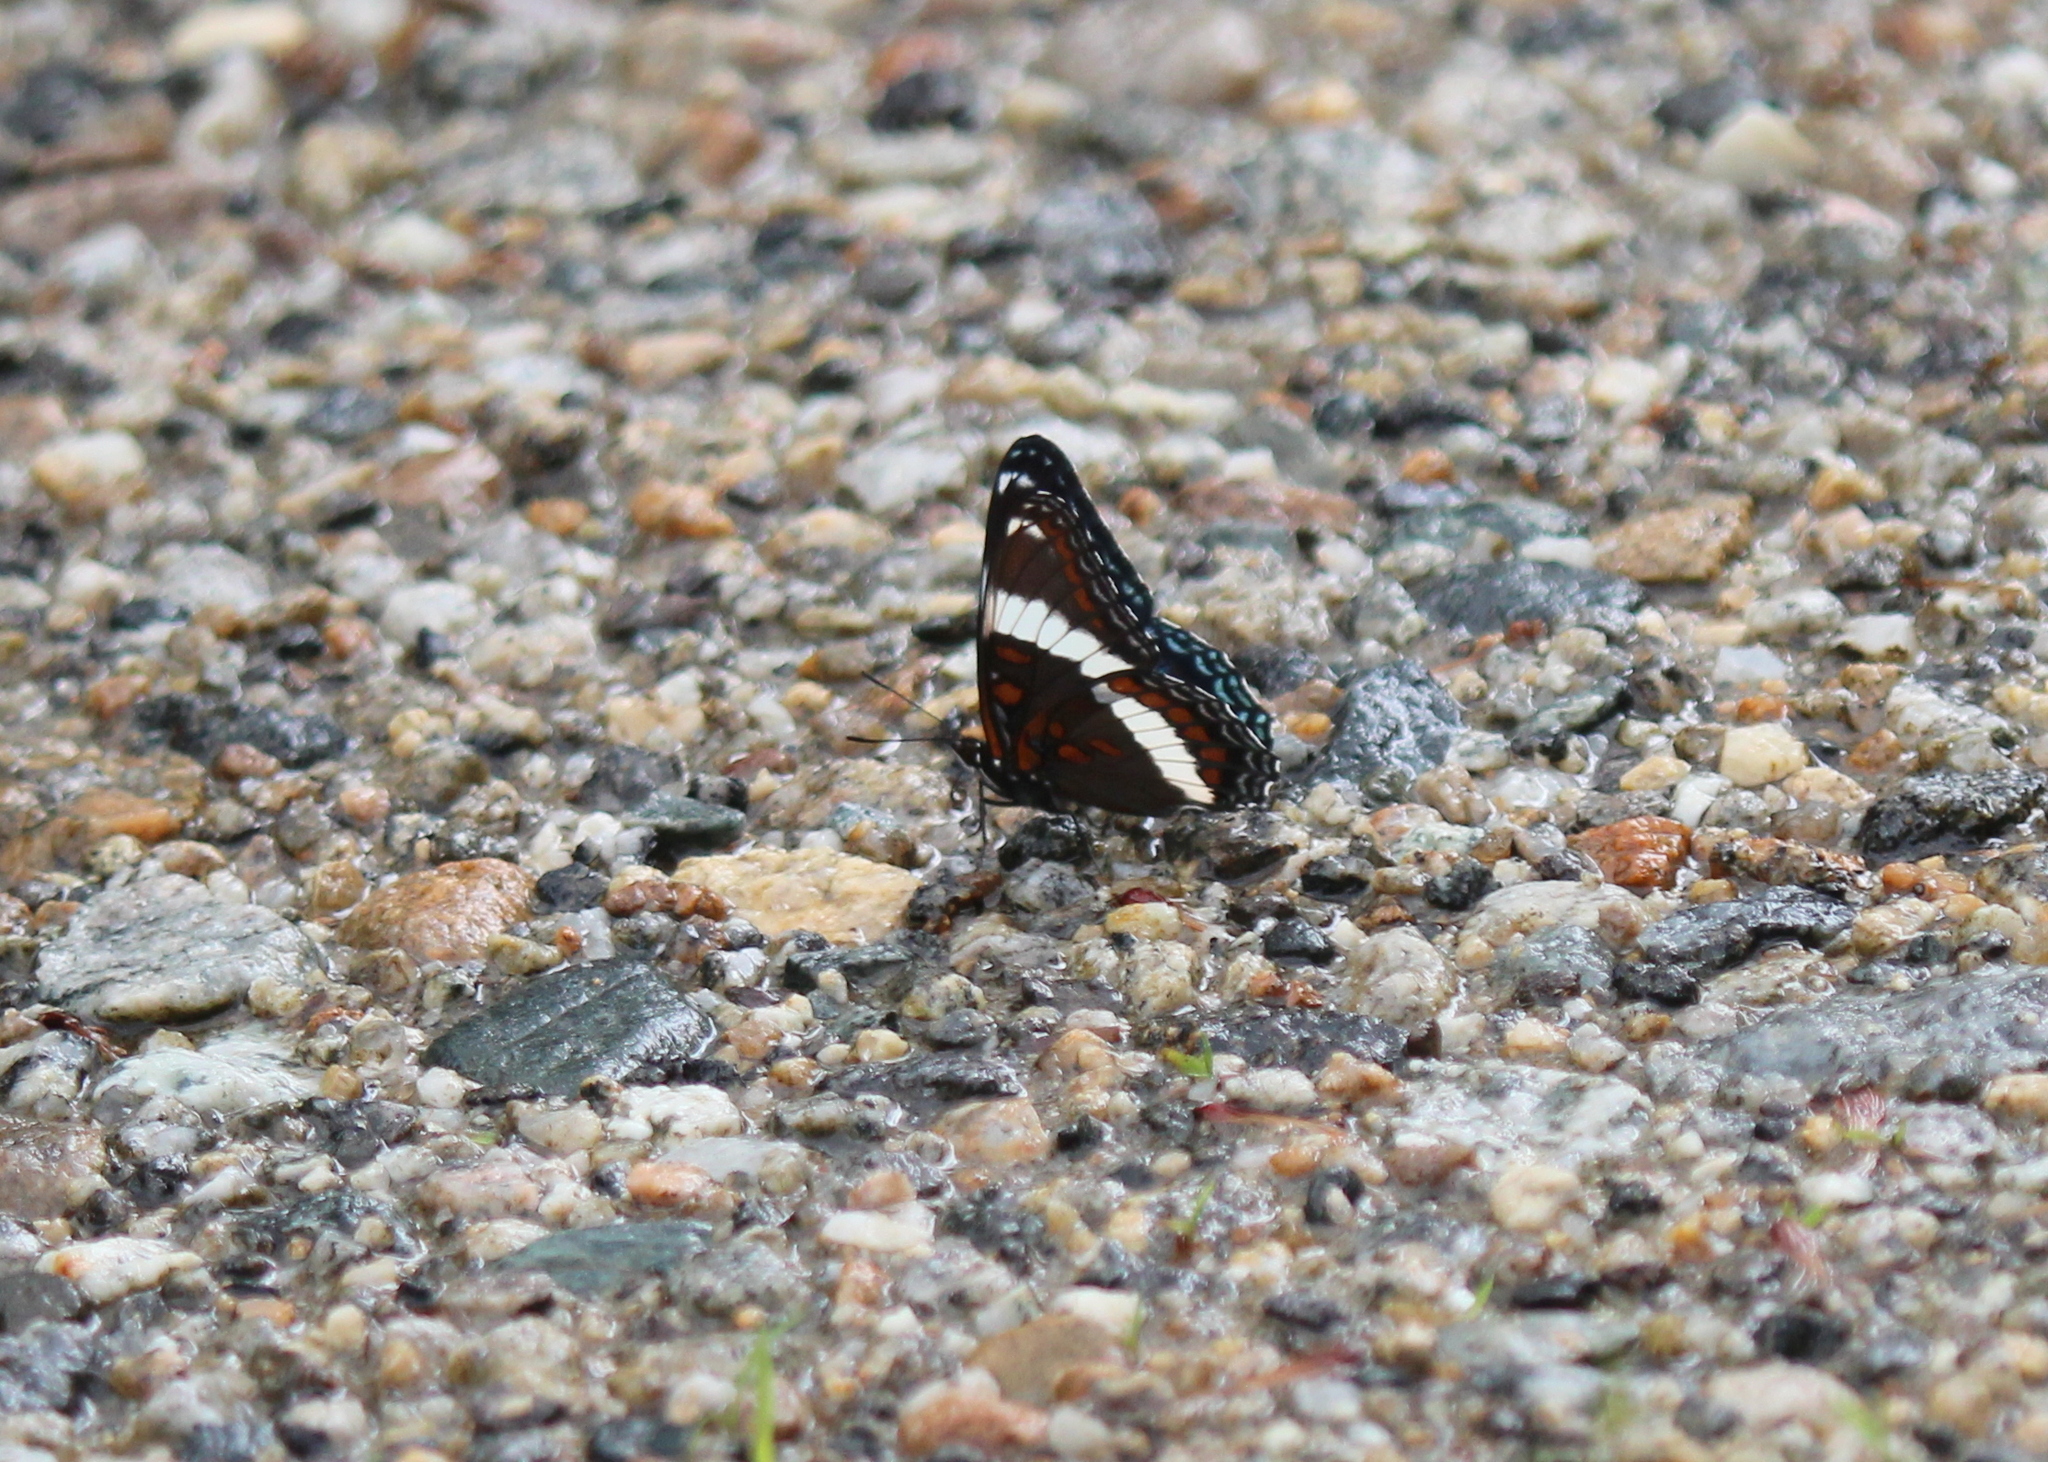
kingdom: Animalia
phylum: Arthropoda
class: Insecta
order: Lepidoptera
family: Nymphalidae
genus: Limenitis
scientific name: Limenitis arthemis
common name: Red-spotted admiral
